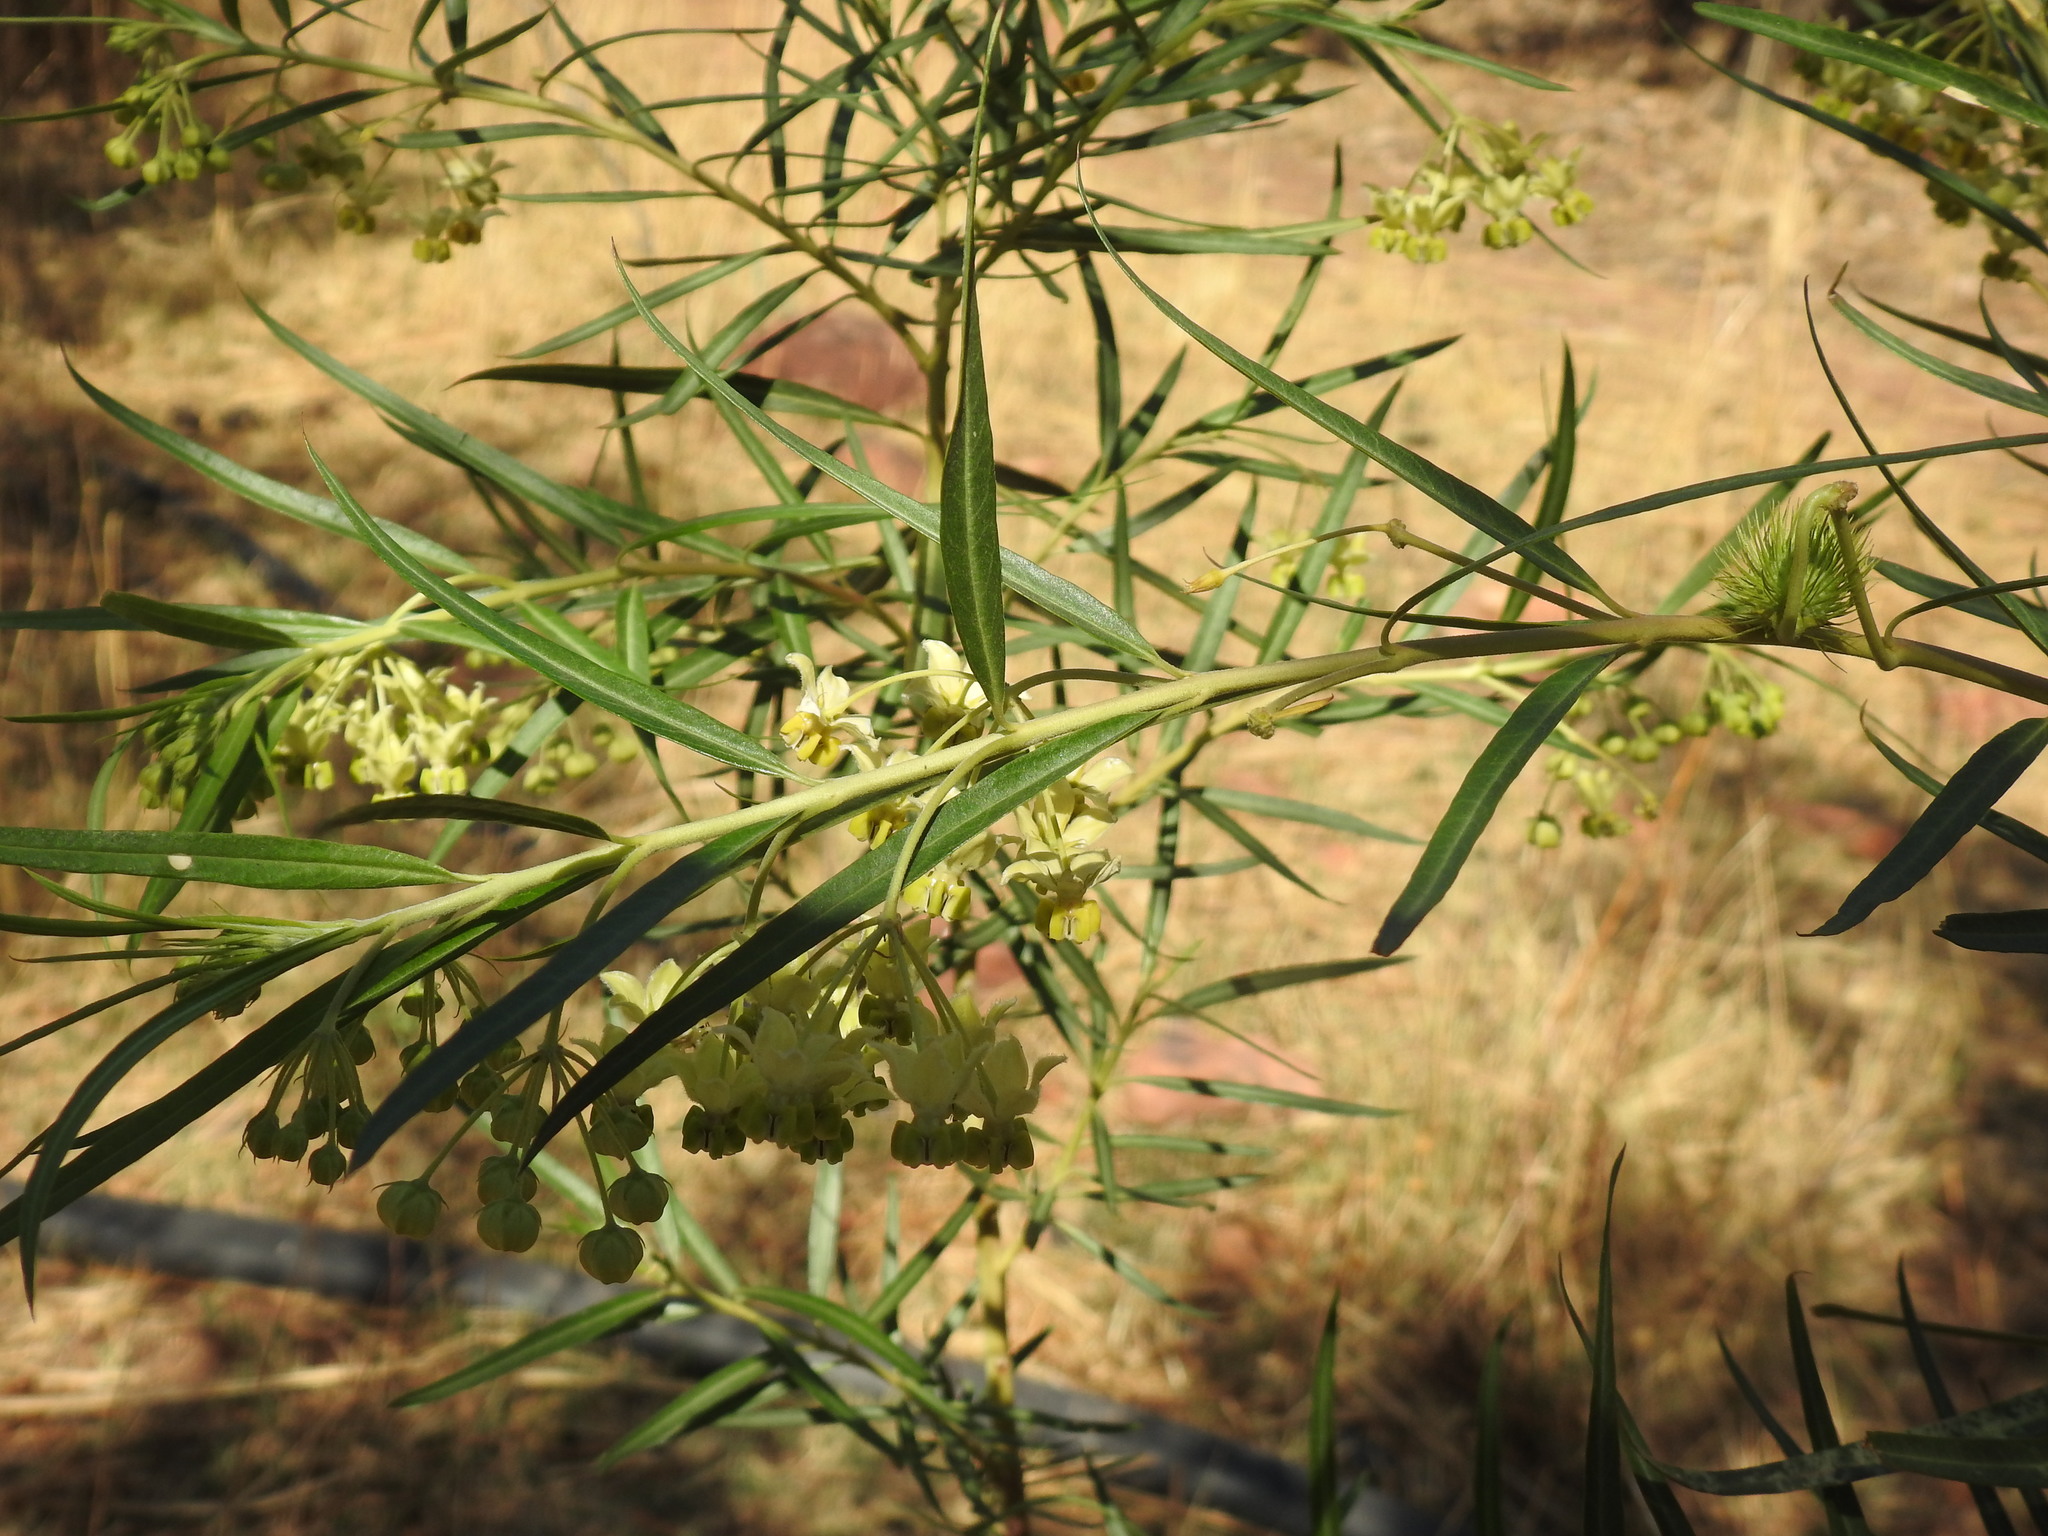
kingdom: Plantae
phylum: Tracheophyta
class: Magnoliopsida
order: Gentianales
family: Apocynaceae
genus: Gomphocarpus
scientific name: Gomphocarpus fruticosus
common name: Milkweed
